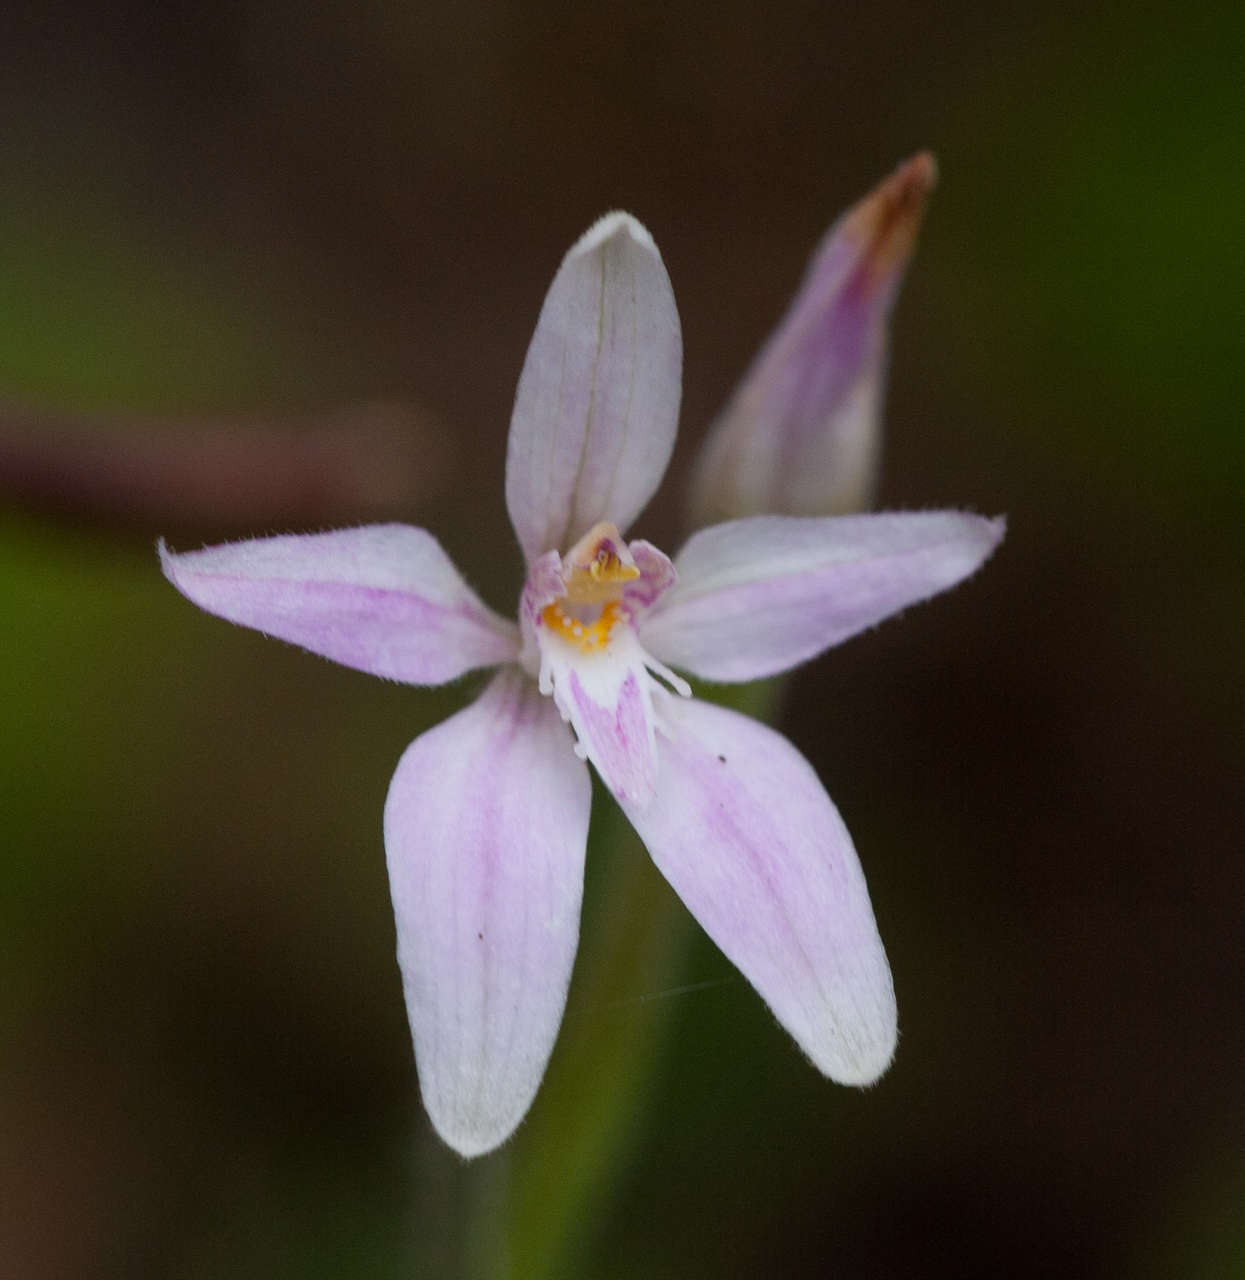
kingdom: Plantae
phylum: Tracheophyta
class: Liliopsida
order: Asparagales
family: Orchidaceae
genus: Caladenia
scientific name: Caladenia latifolia
